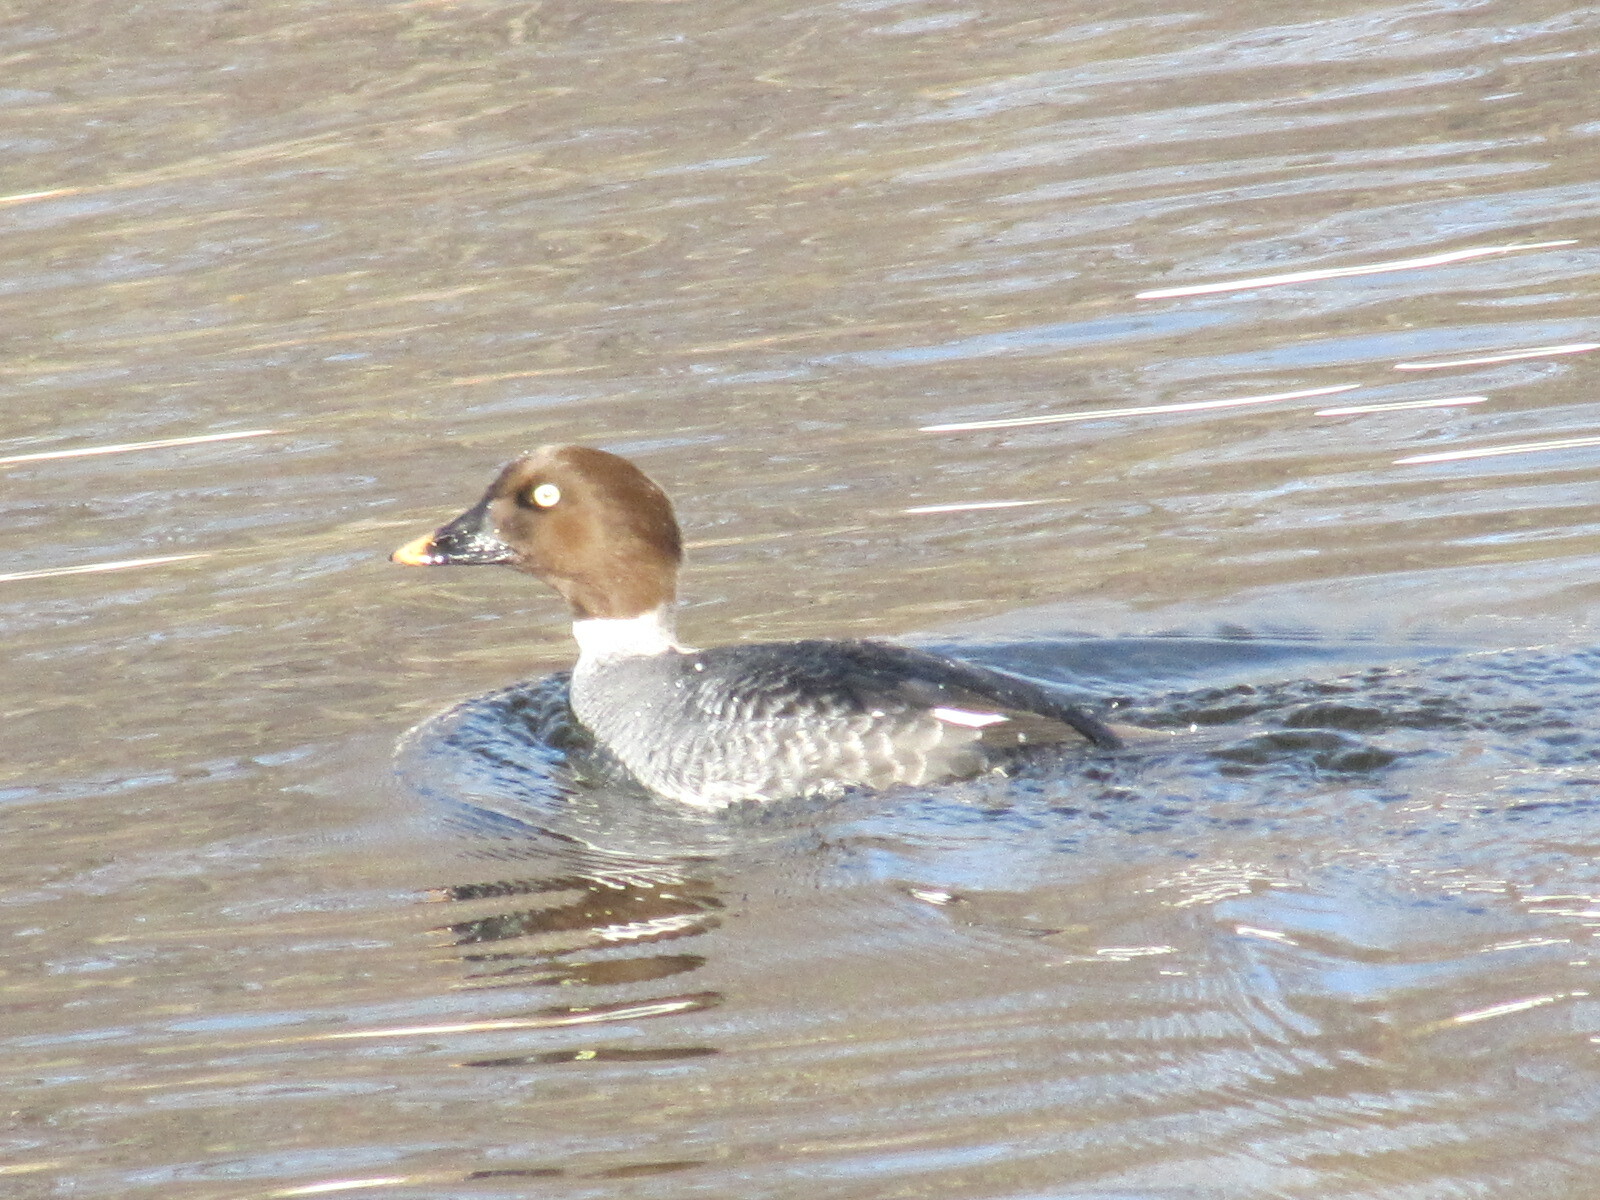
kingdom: Animalia
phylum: Chordata
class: Aves
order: Anseriformes
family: Anatidae
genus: Bucephala
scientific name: Bucephala clangula
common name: Common goldeneye
